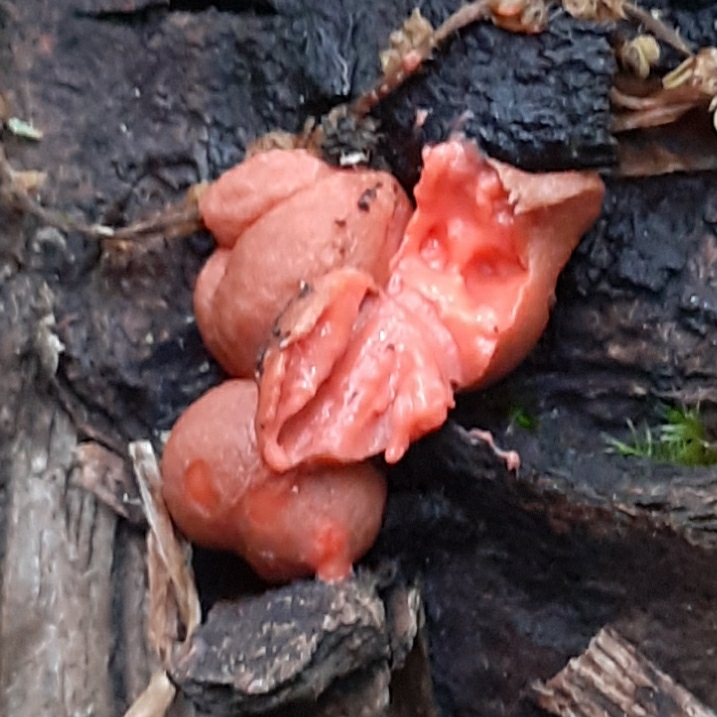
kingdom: Protozoa
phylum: Mycetozoa
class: Myxomycetes
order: Cribrariales
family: Tubiferaceae
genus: Lycogala
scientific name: Lycogala epidendrum
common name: Wolf's milk
